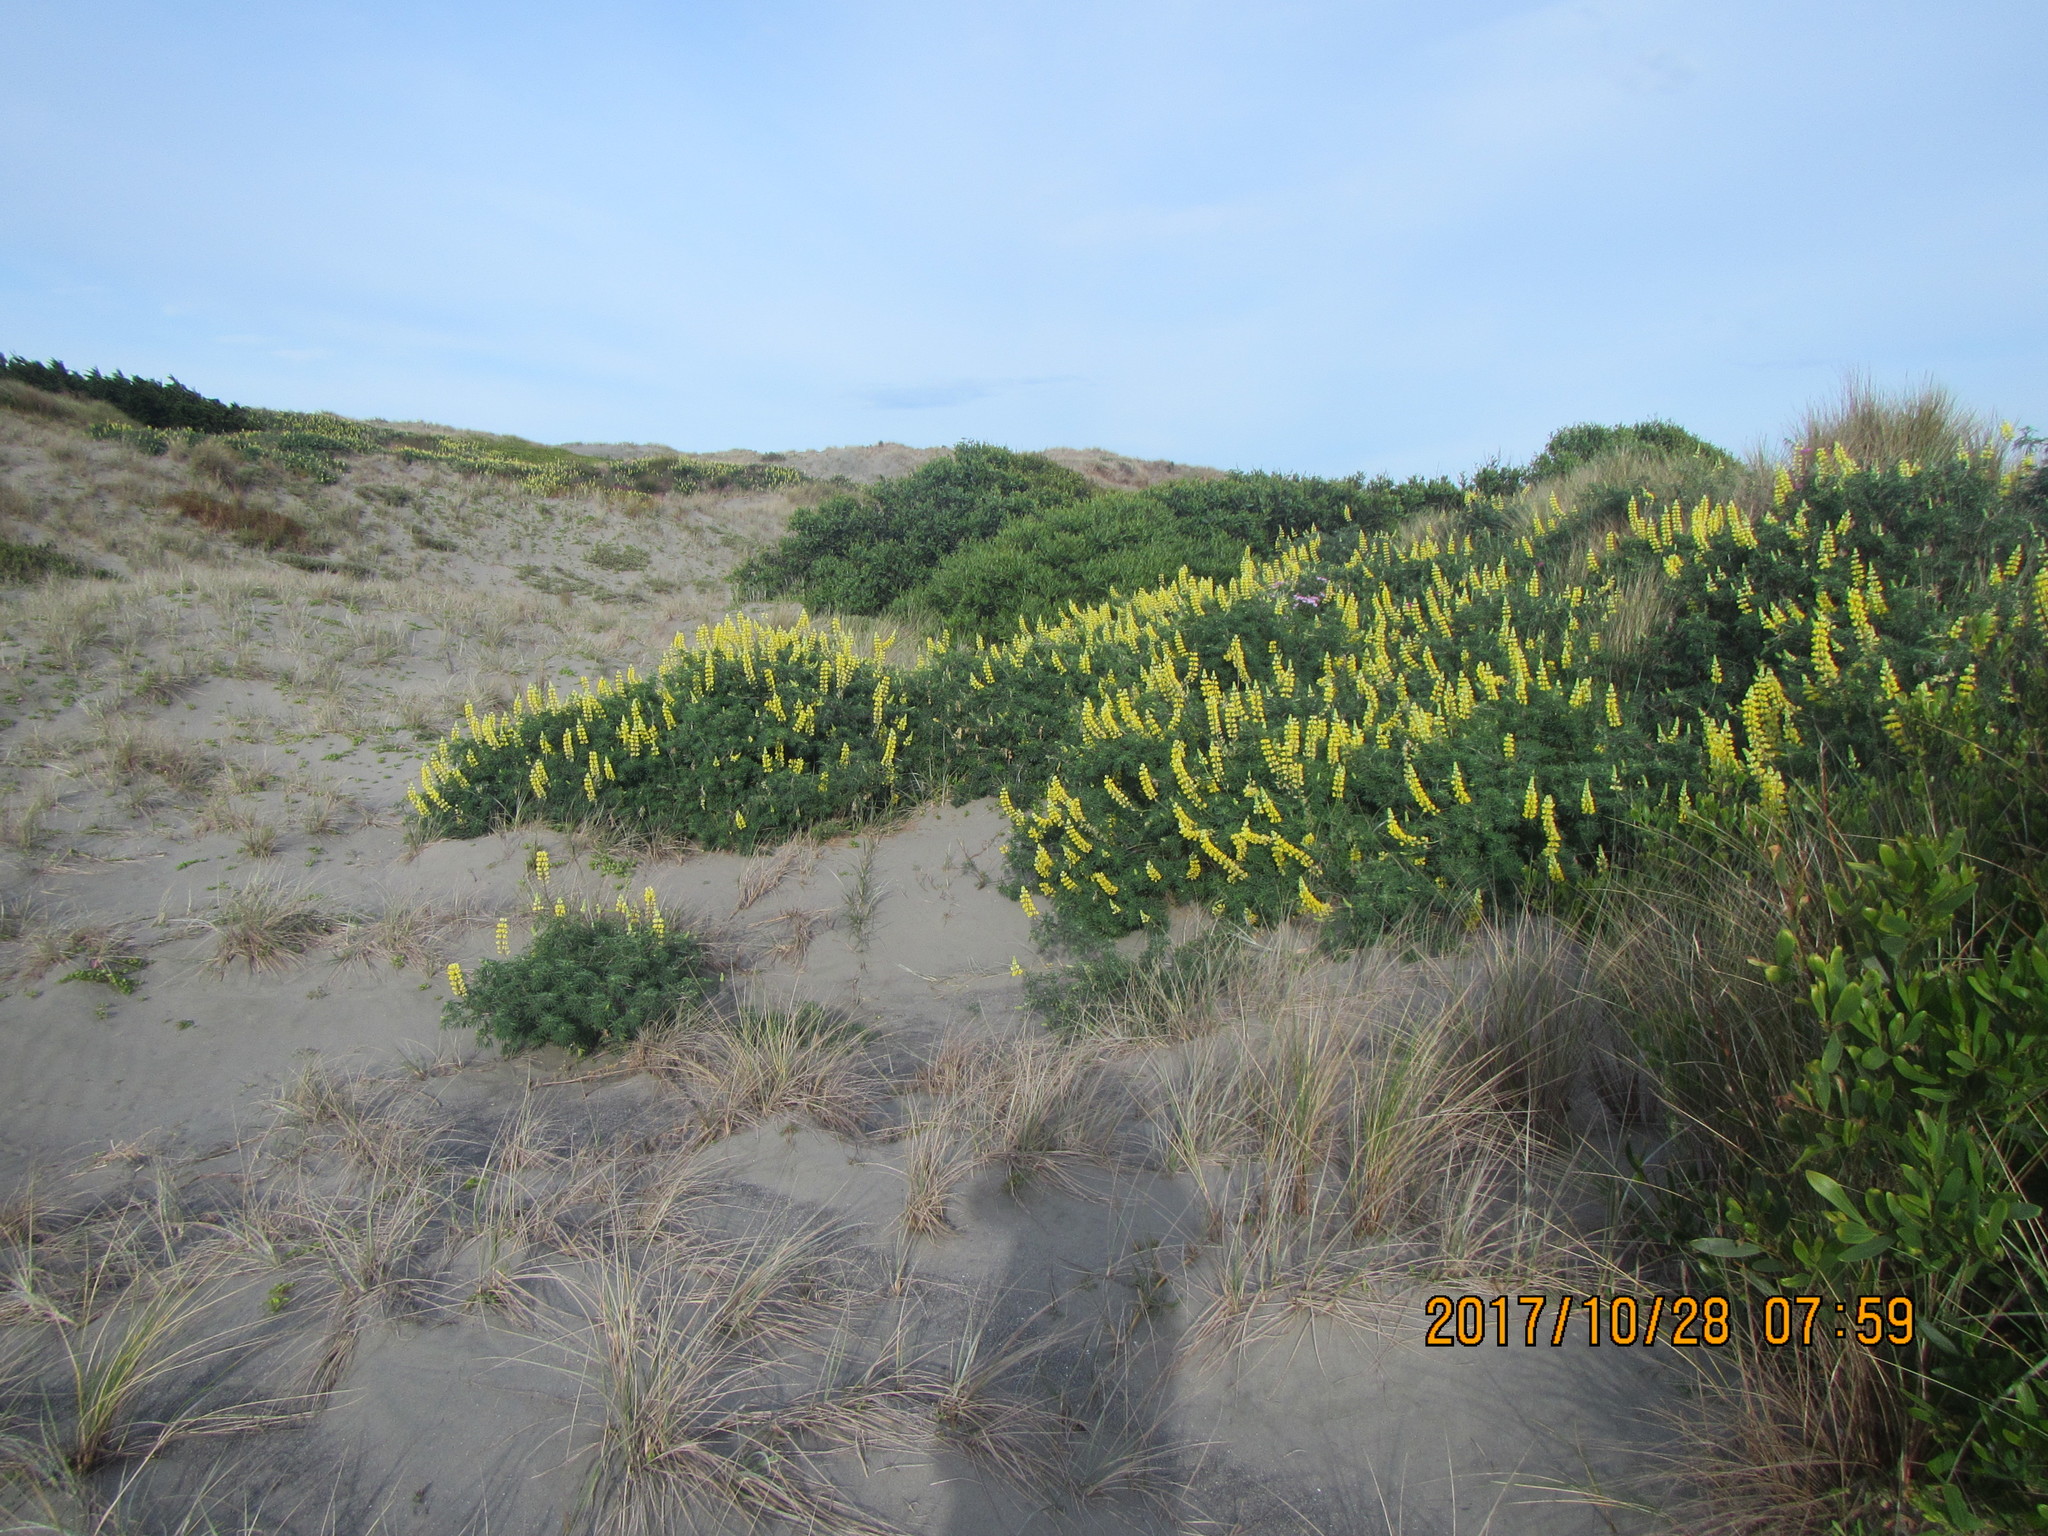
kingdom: Plantae
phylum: Tracheophyta
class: Magnoliopsida
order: Fabales
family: Fabaceae
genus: Lupinus
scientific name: Lupinus arboreus
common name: Yellow bush lupine
